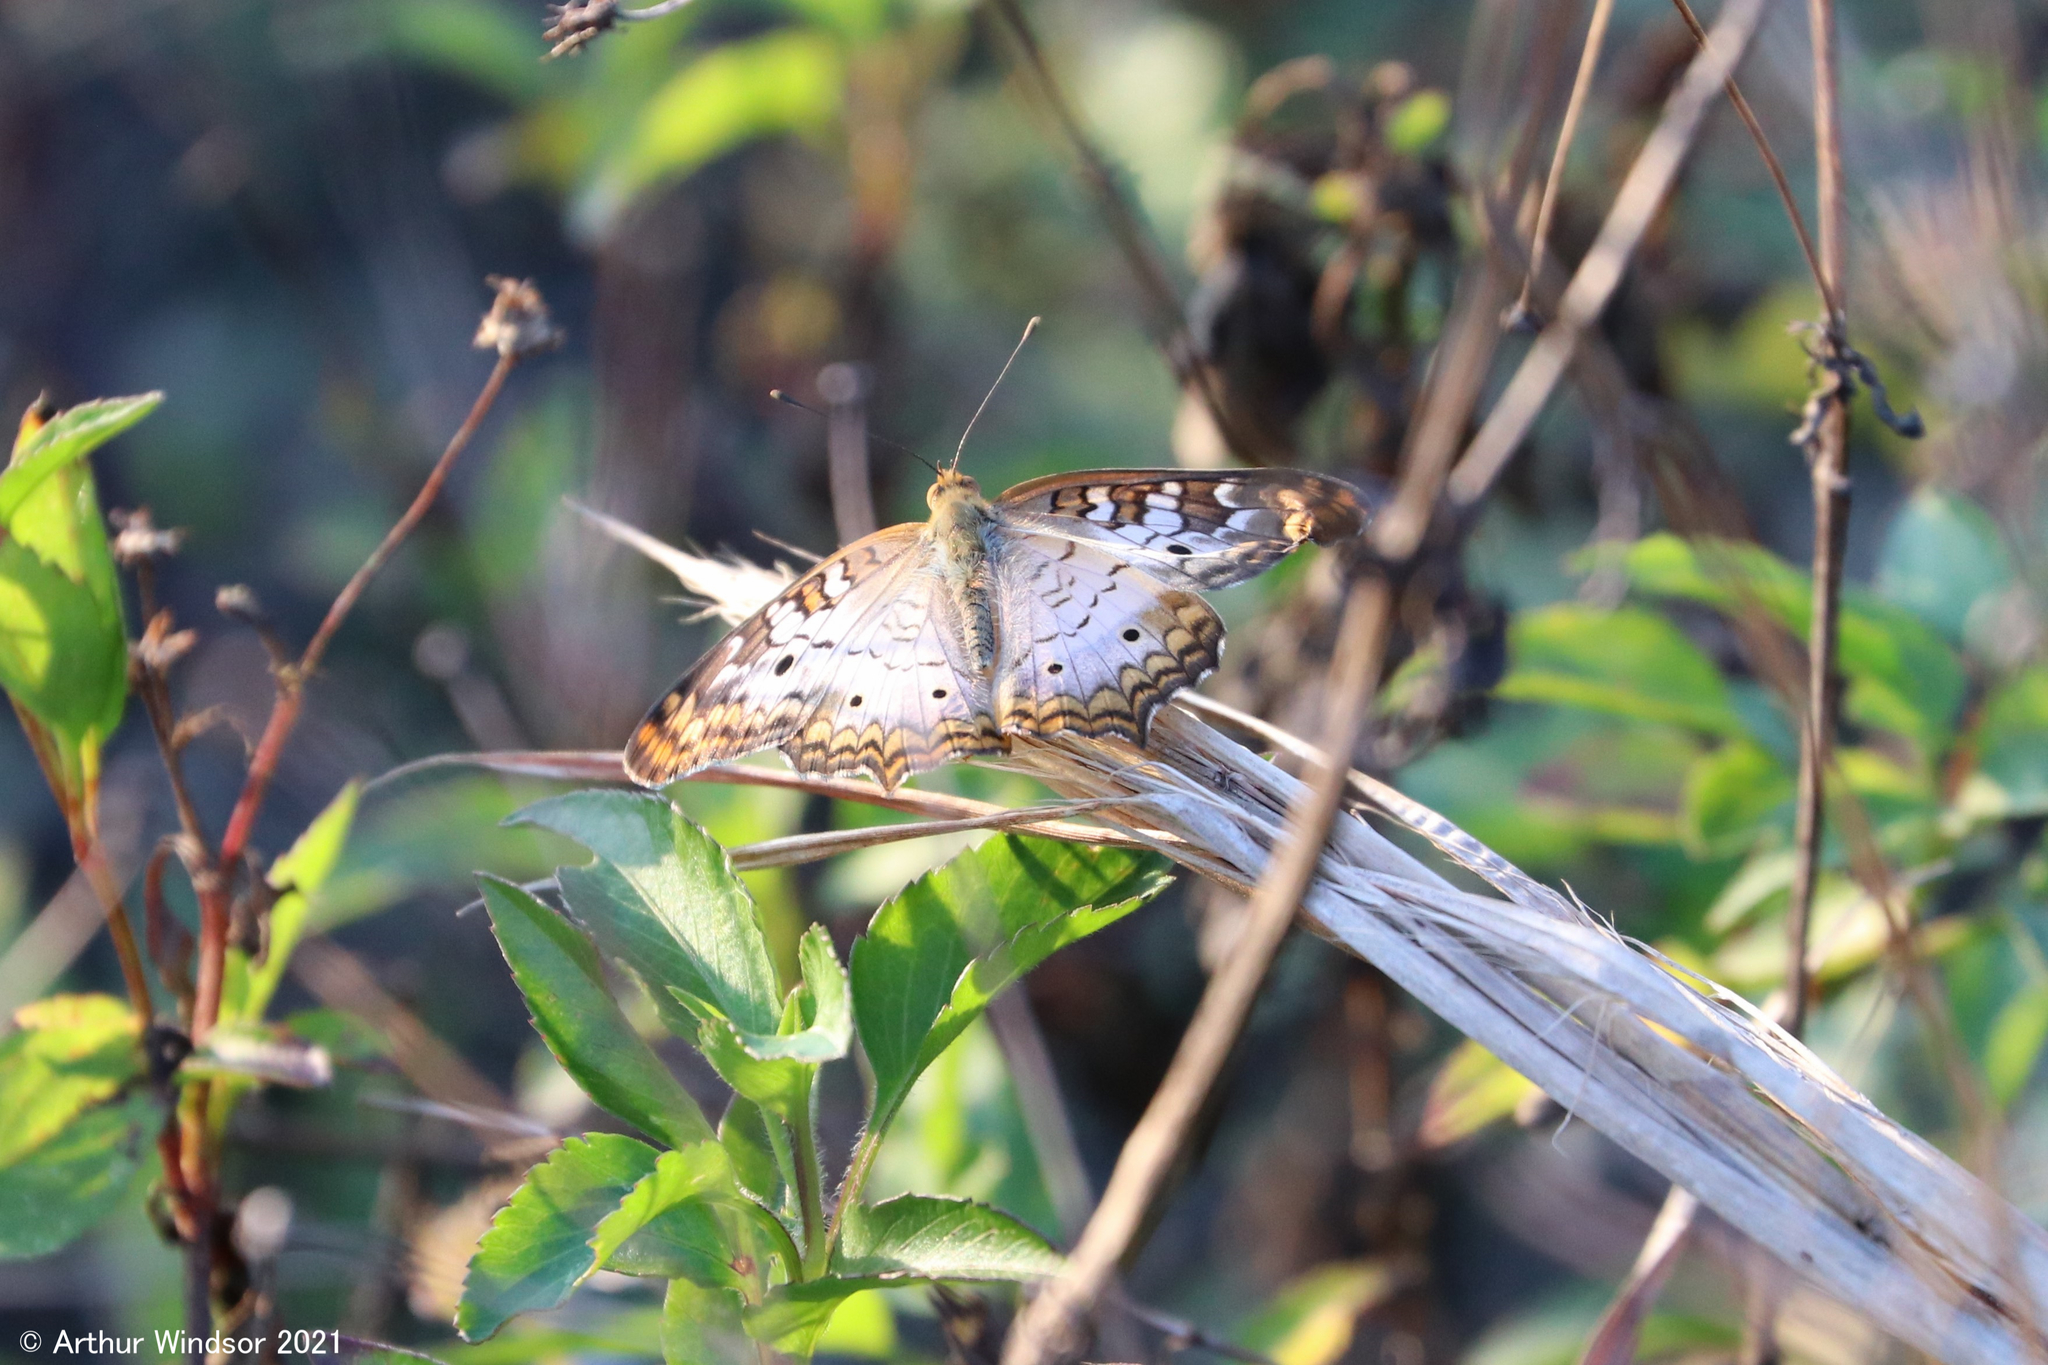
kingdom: Animalia
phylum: Arthropoda
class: Insecta
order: Lepidoptera
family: Nymphalidae
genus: Anartia
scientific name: Anartia jatrophae
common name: White peacock
